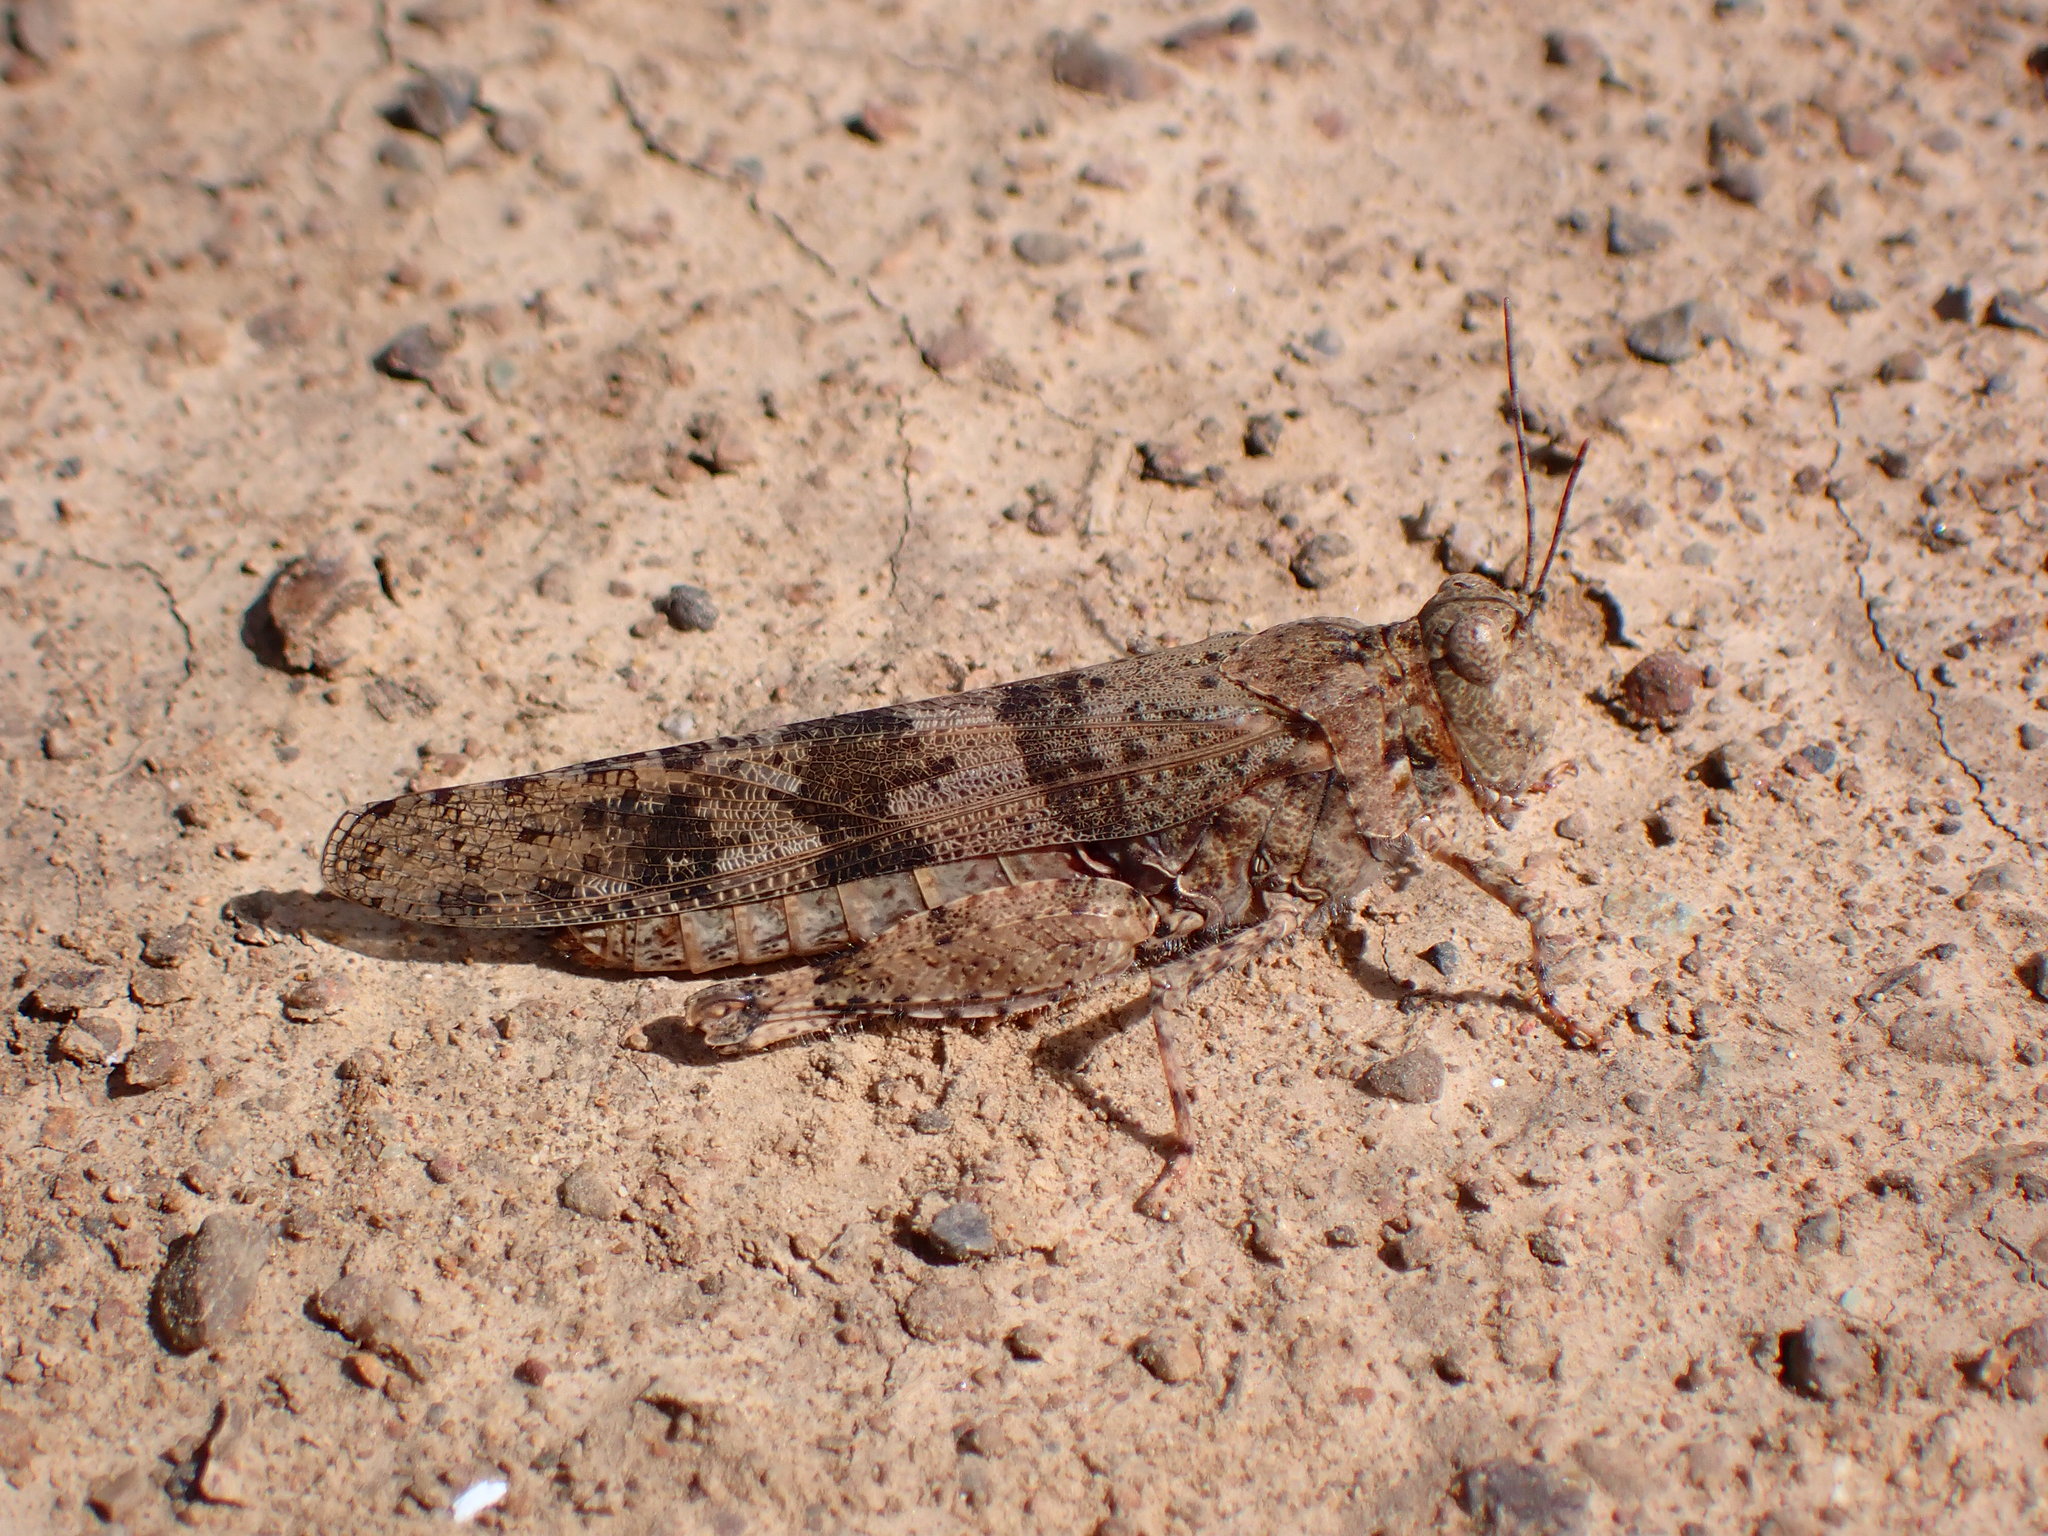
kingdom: Animalia
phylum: Arthropoda
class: Insecta
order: Orthoptera
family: Acrididae
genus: Trimerotropis
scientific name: Trimerotropis pallidipennis
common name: Pallid-winged grasshopper
